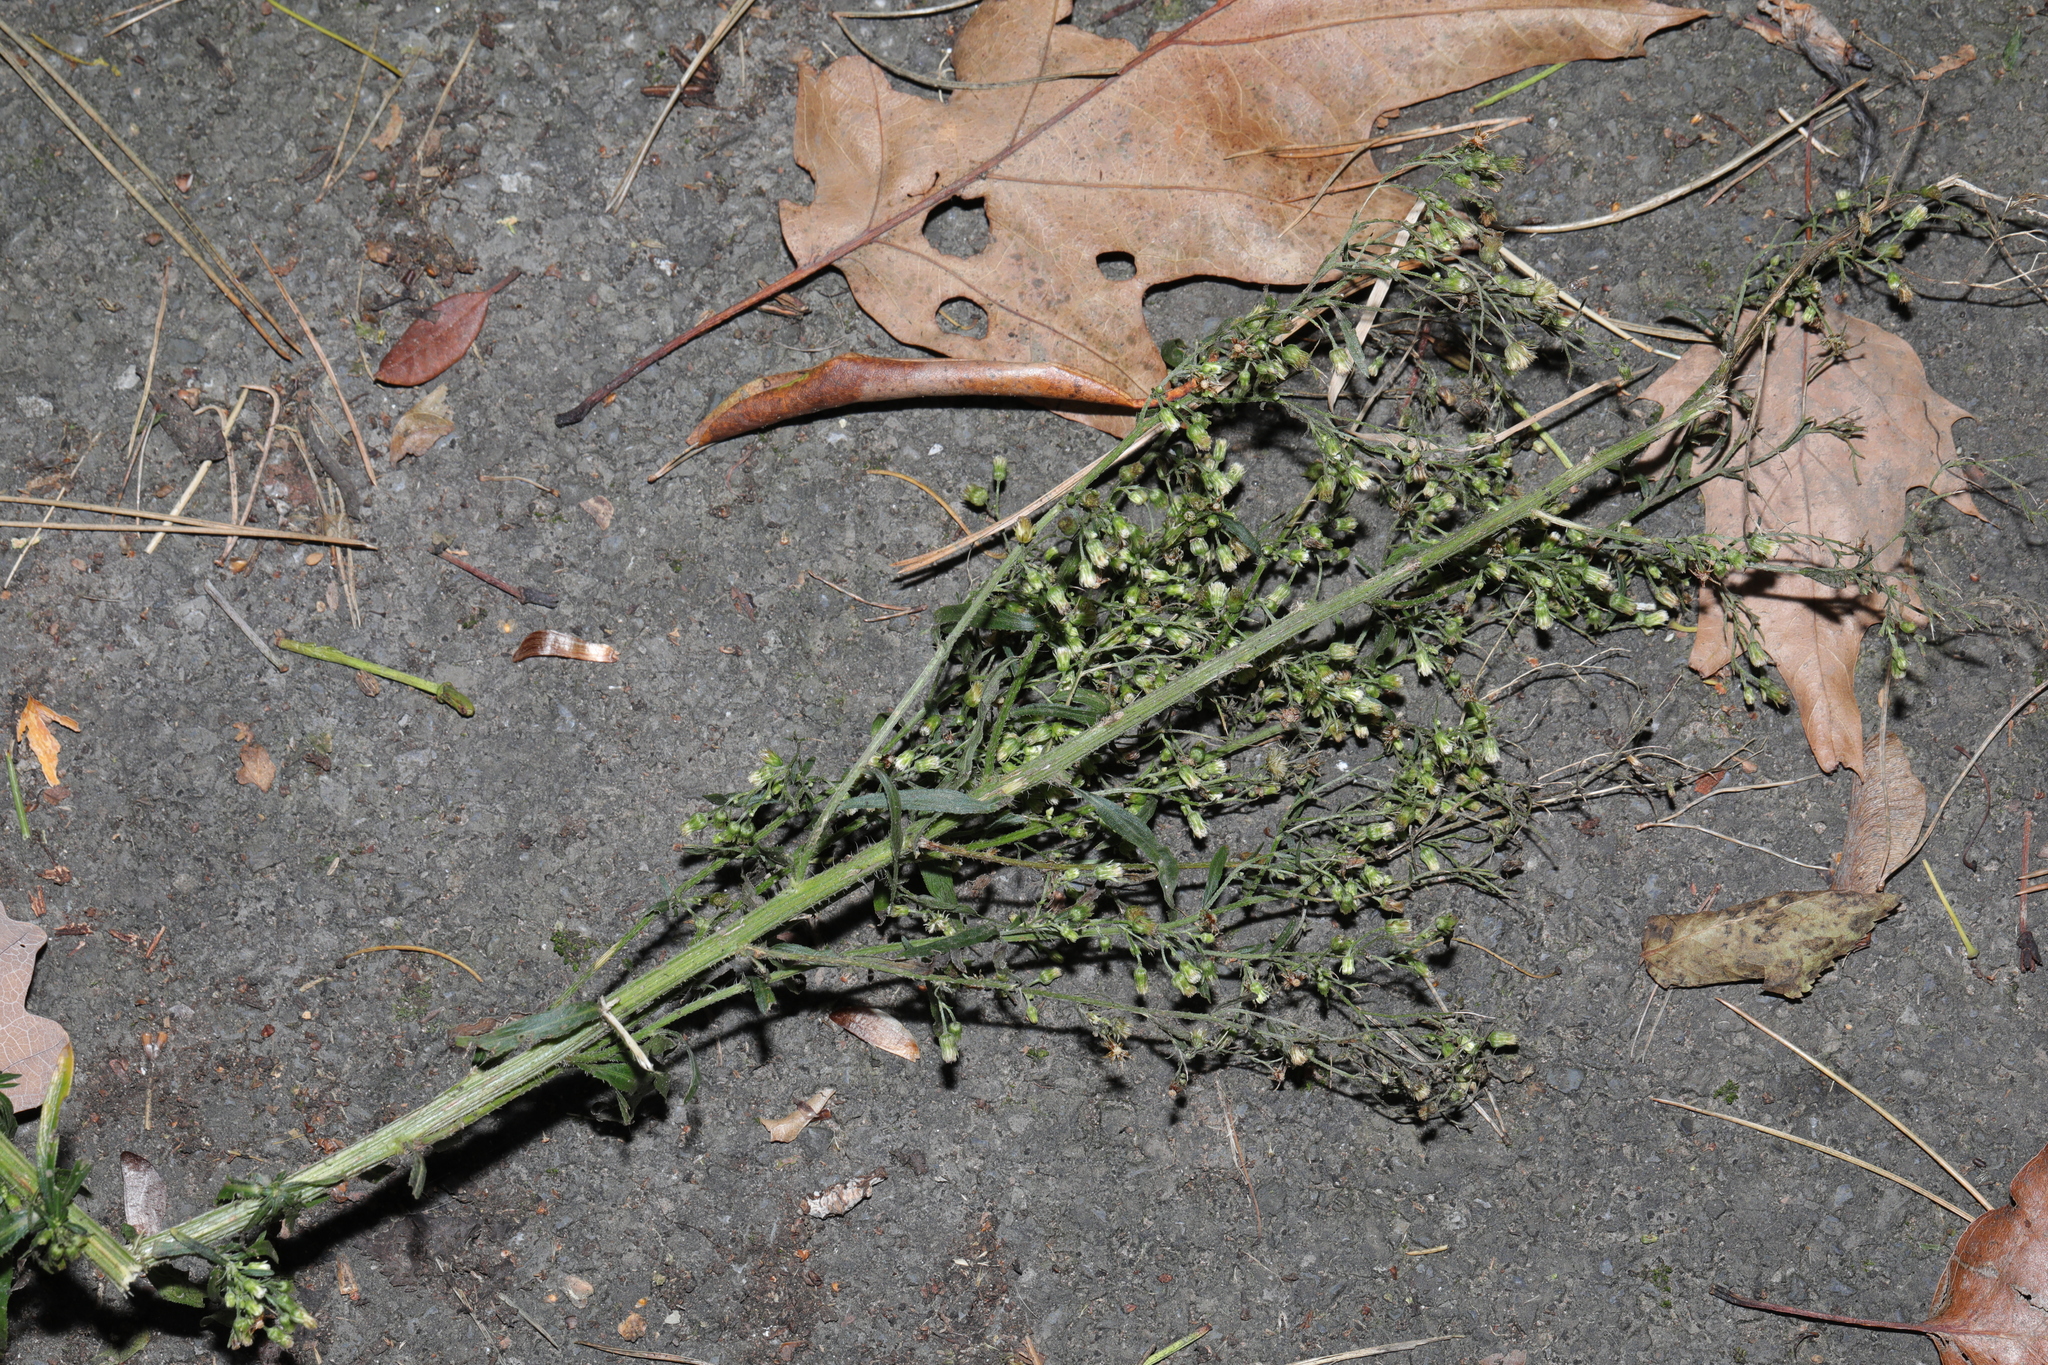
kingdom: Plantae
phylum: Tracheophyta
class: Magnoliopsida
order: Asterales
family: Asteraceae
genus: Erigeron
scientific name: Erigeron sumatrensis
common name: Daisy
